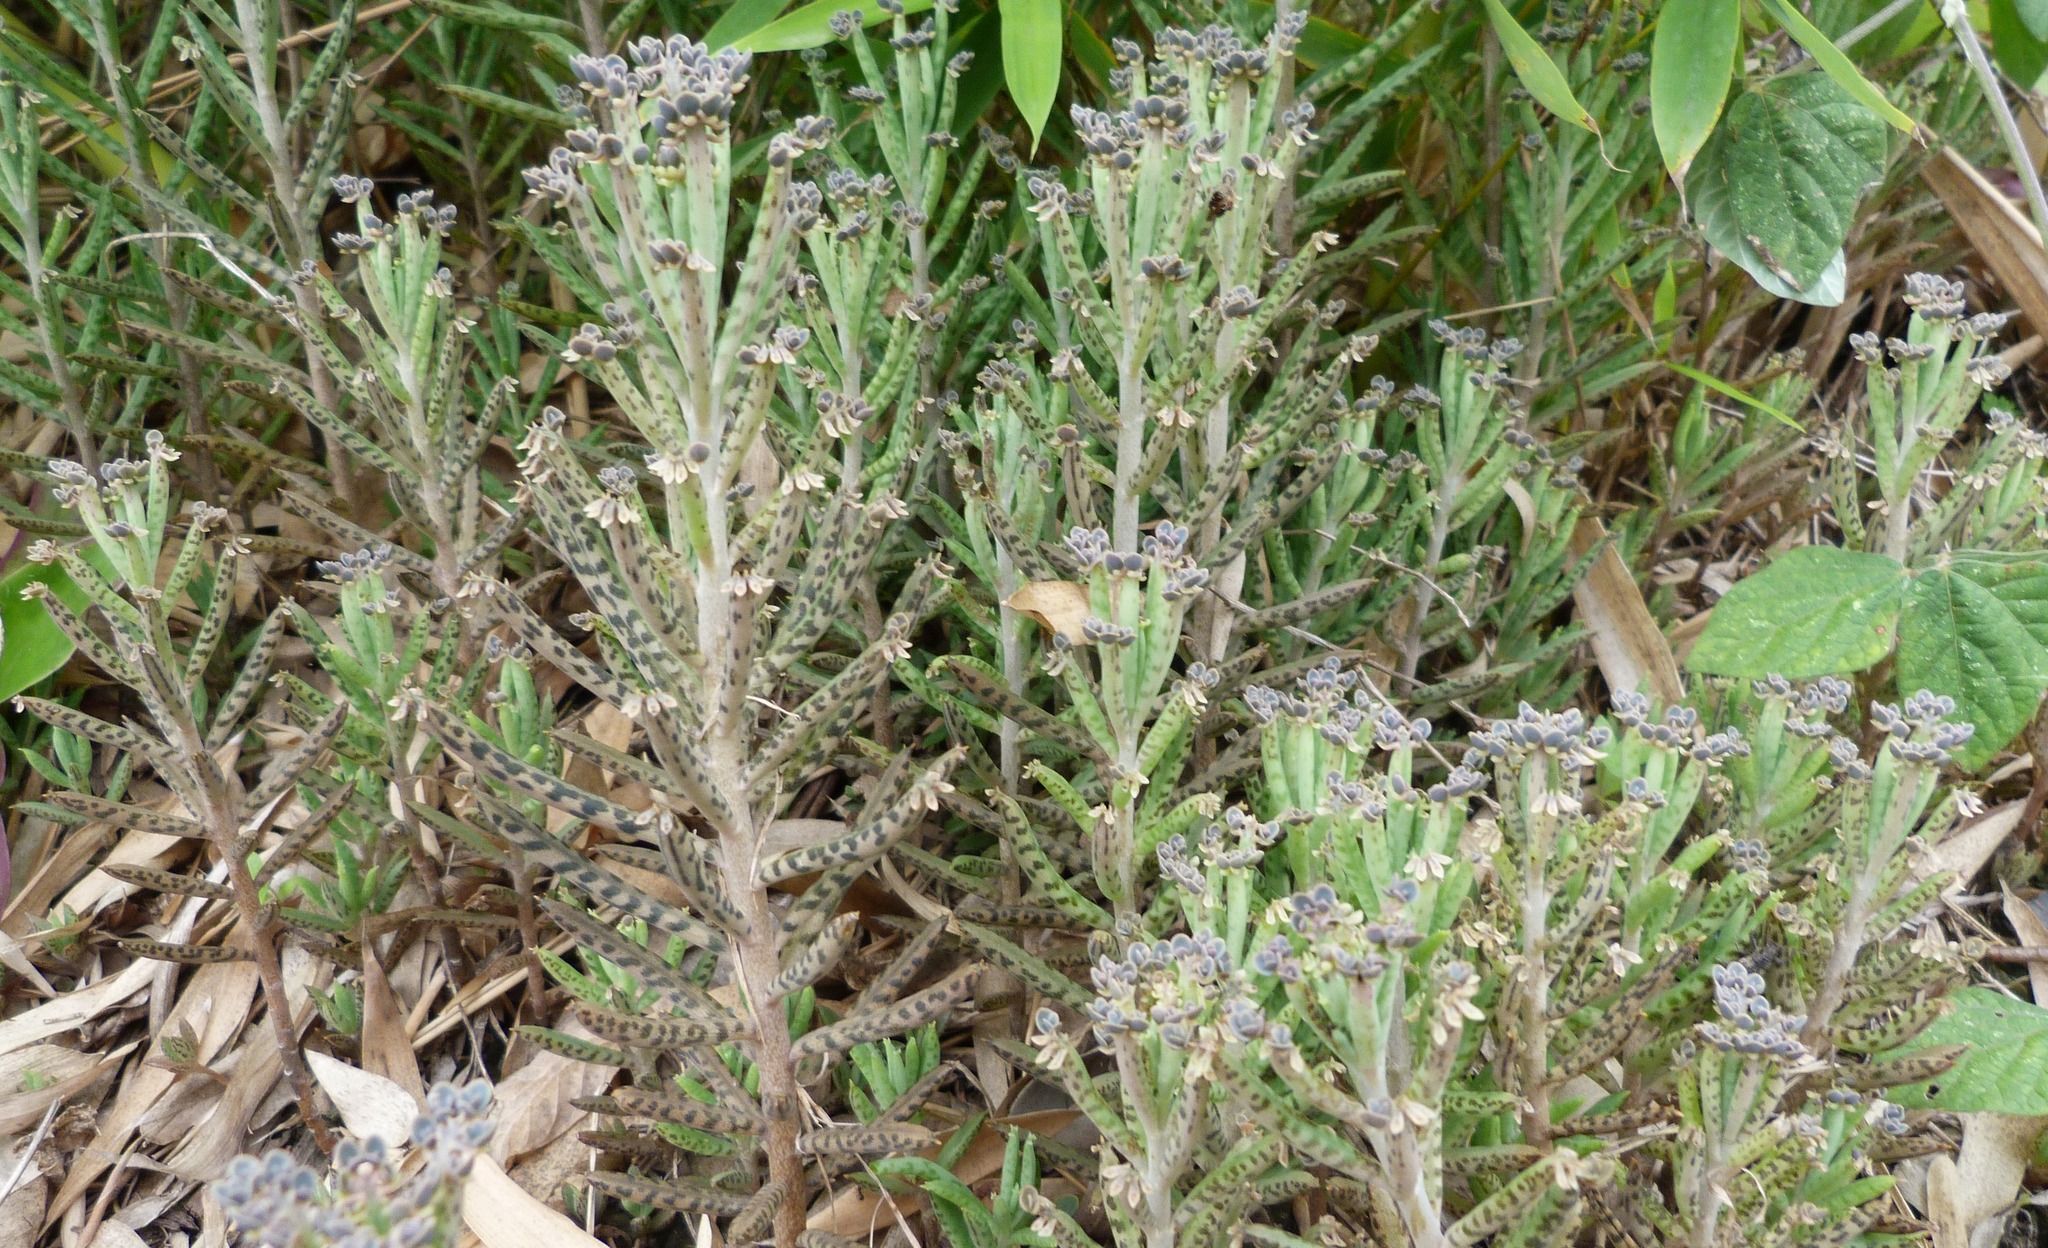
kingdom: Plantae
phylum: Tracheophyta
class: Magnoliopsida
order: Saxifragales
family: Crassulaceae
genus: Kalanchoe
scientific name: Kalanchoe delagoensis
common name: Chandelier plant
